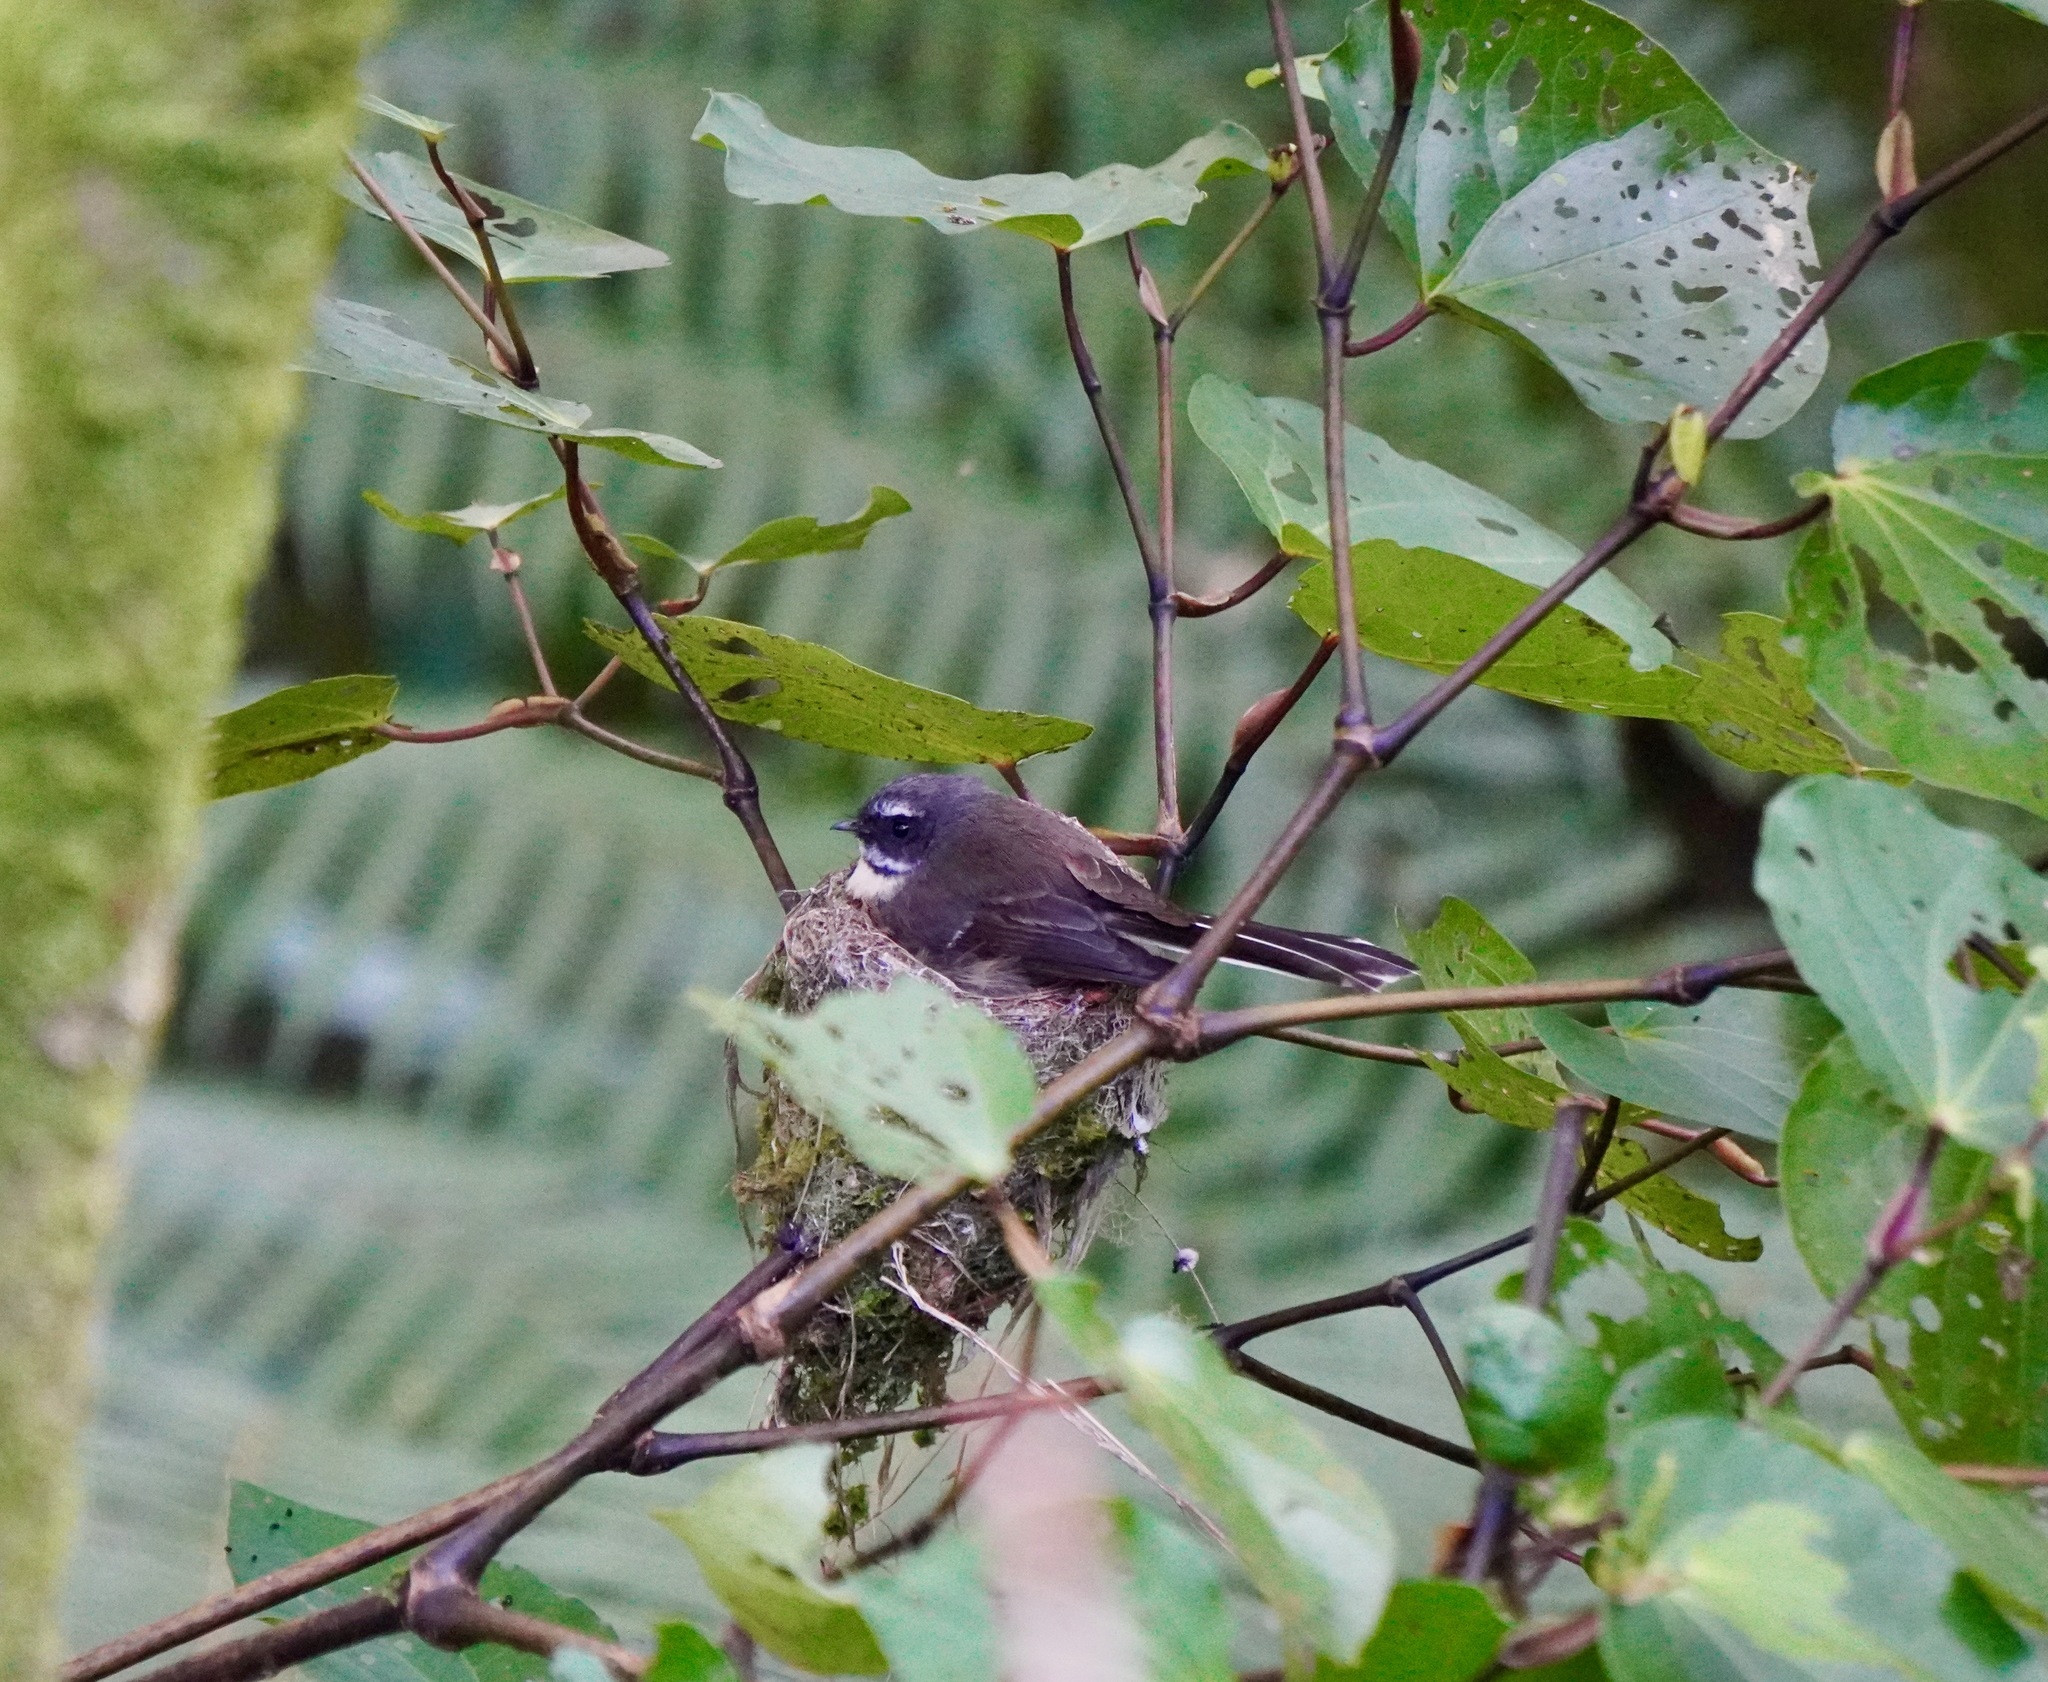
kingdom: Animalia
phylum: Chordata
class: Aves
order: Passeriformes
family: Rhipiduridae
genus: Rhipidura
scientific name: Rhipidura fuliginosa
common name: New zealand fantail
